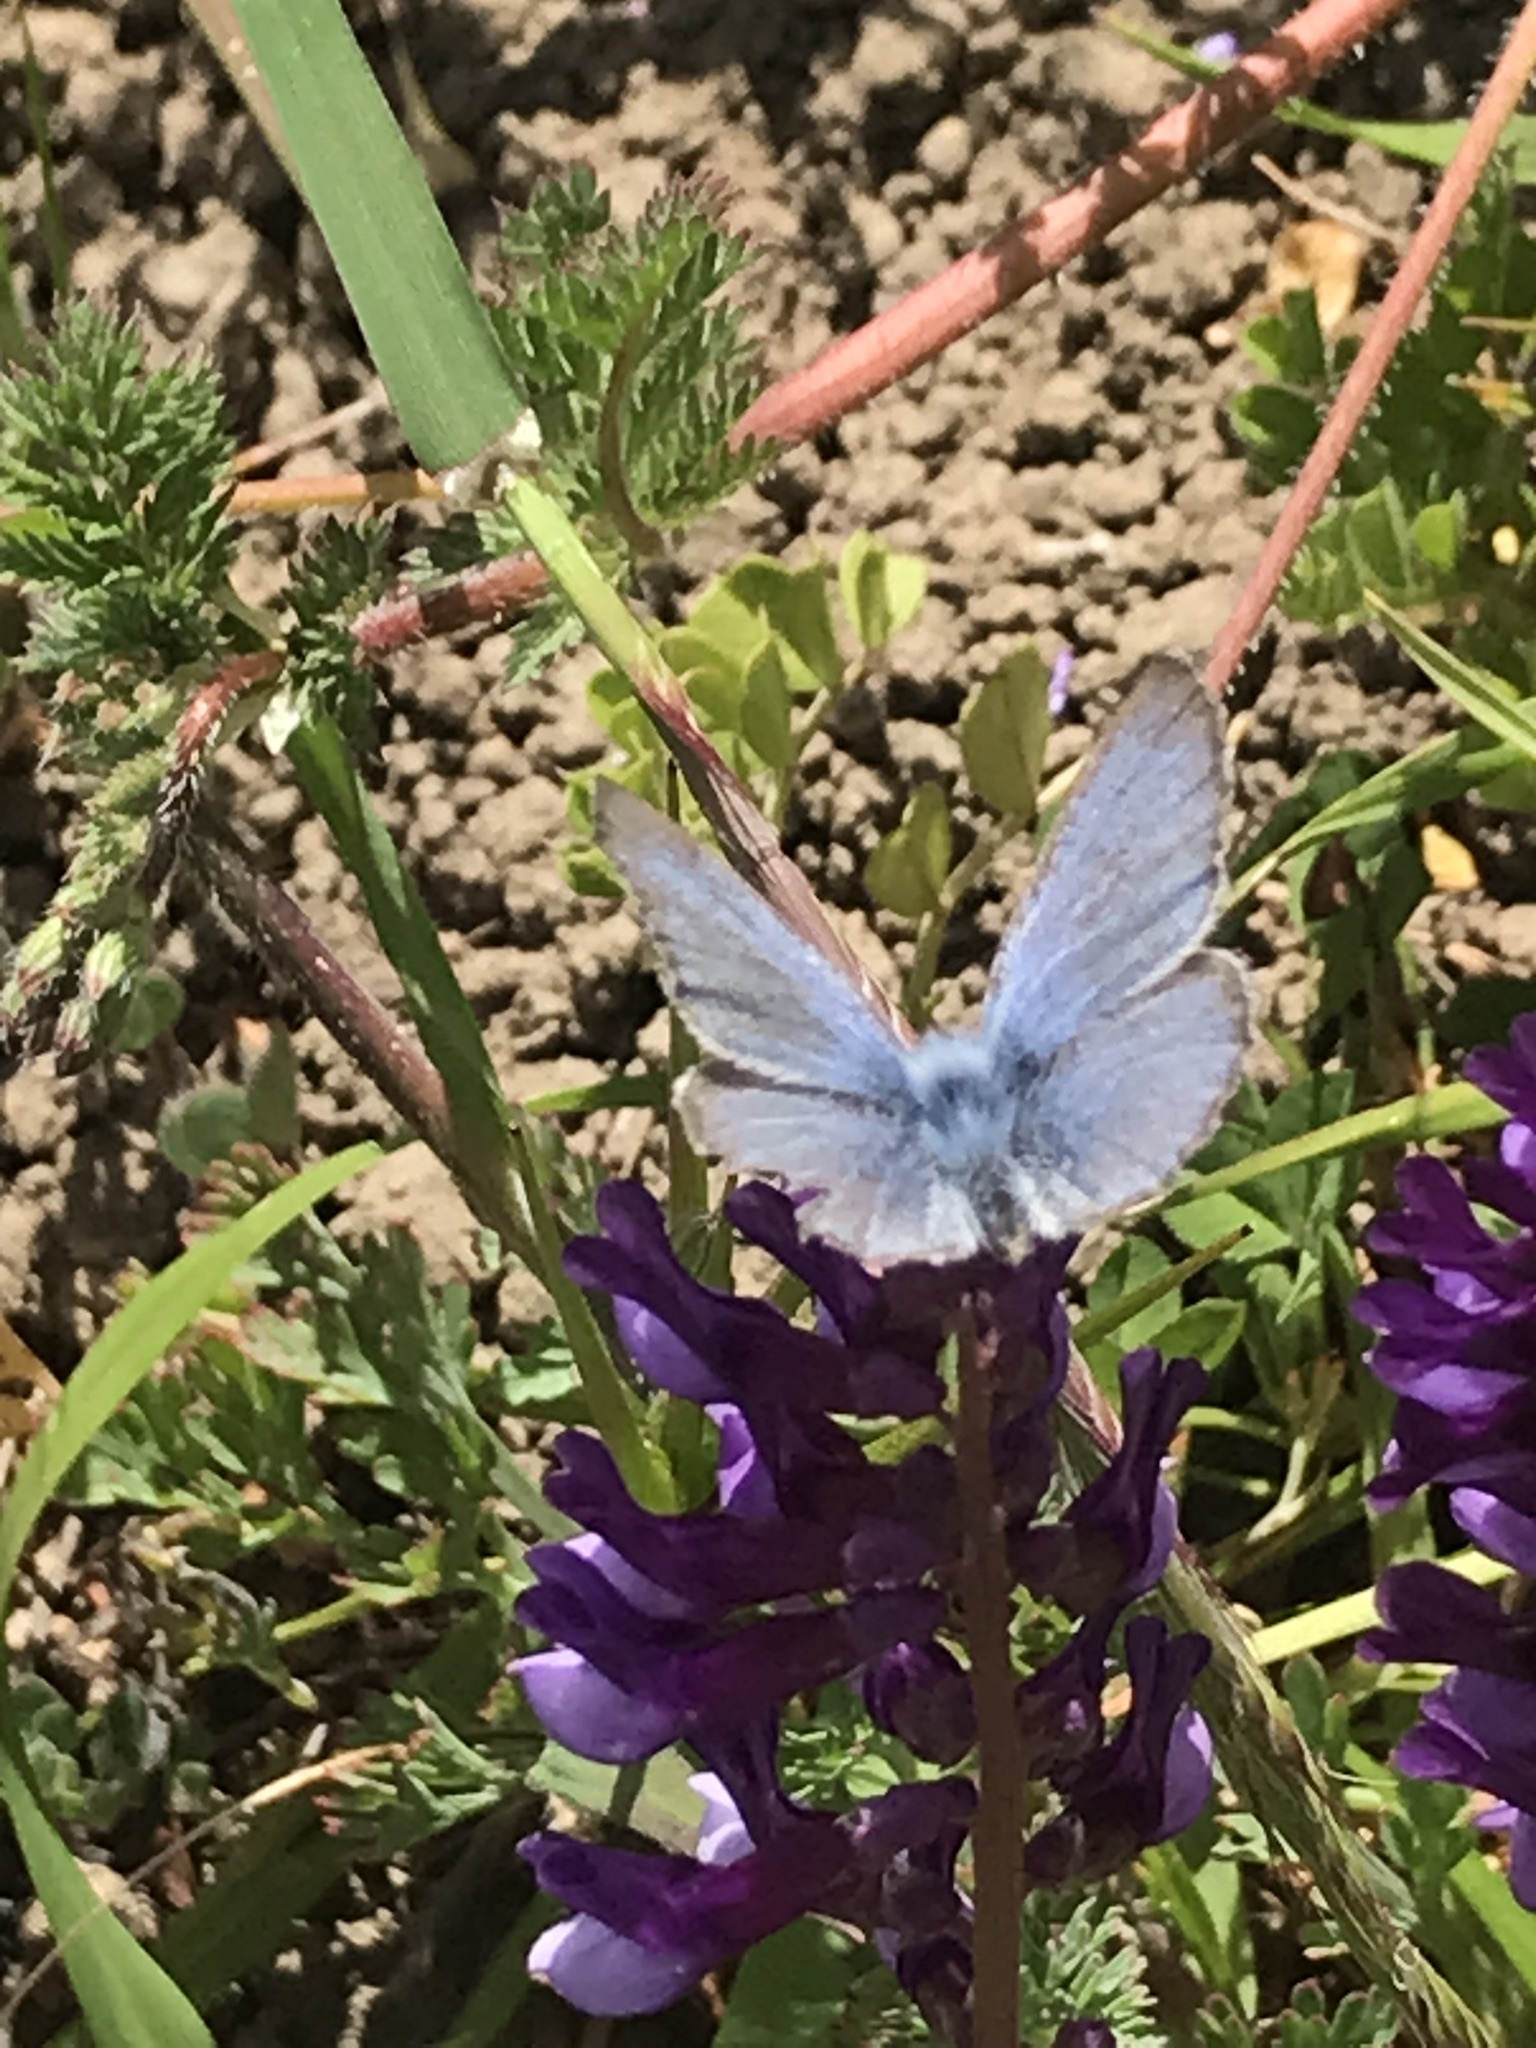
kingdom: Animalia
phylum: Arthropoda
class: Insecta
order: Lepidoptera
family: Lycaenidae
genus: Glaucopsyche
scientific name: Glaucopsyche lygdamus
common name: Silvery blue
